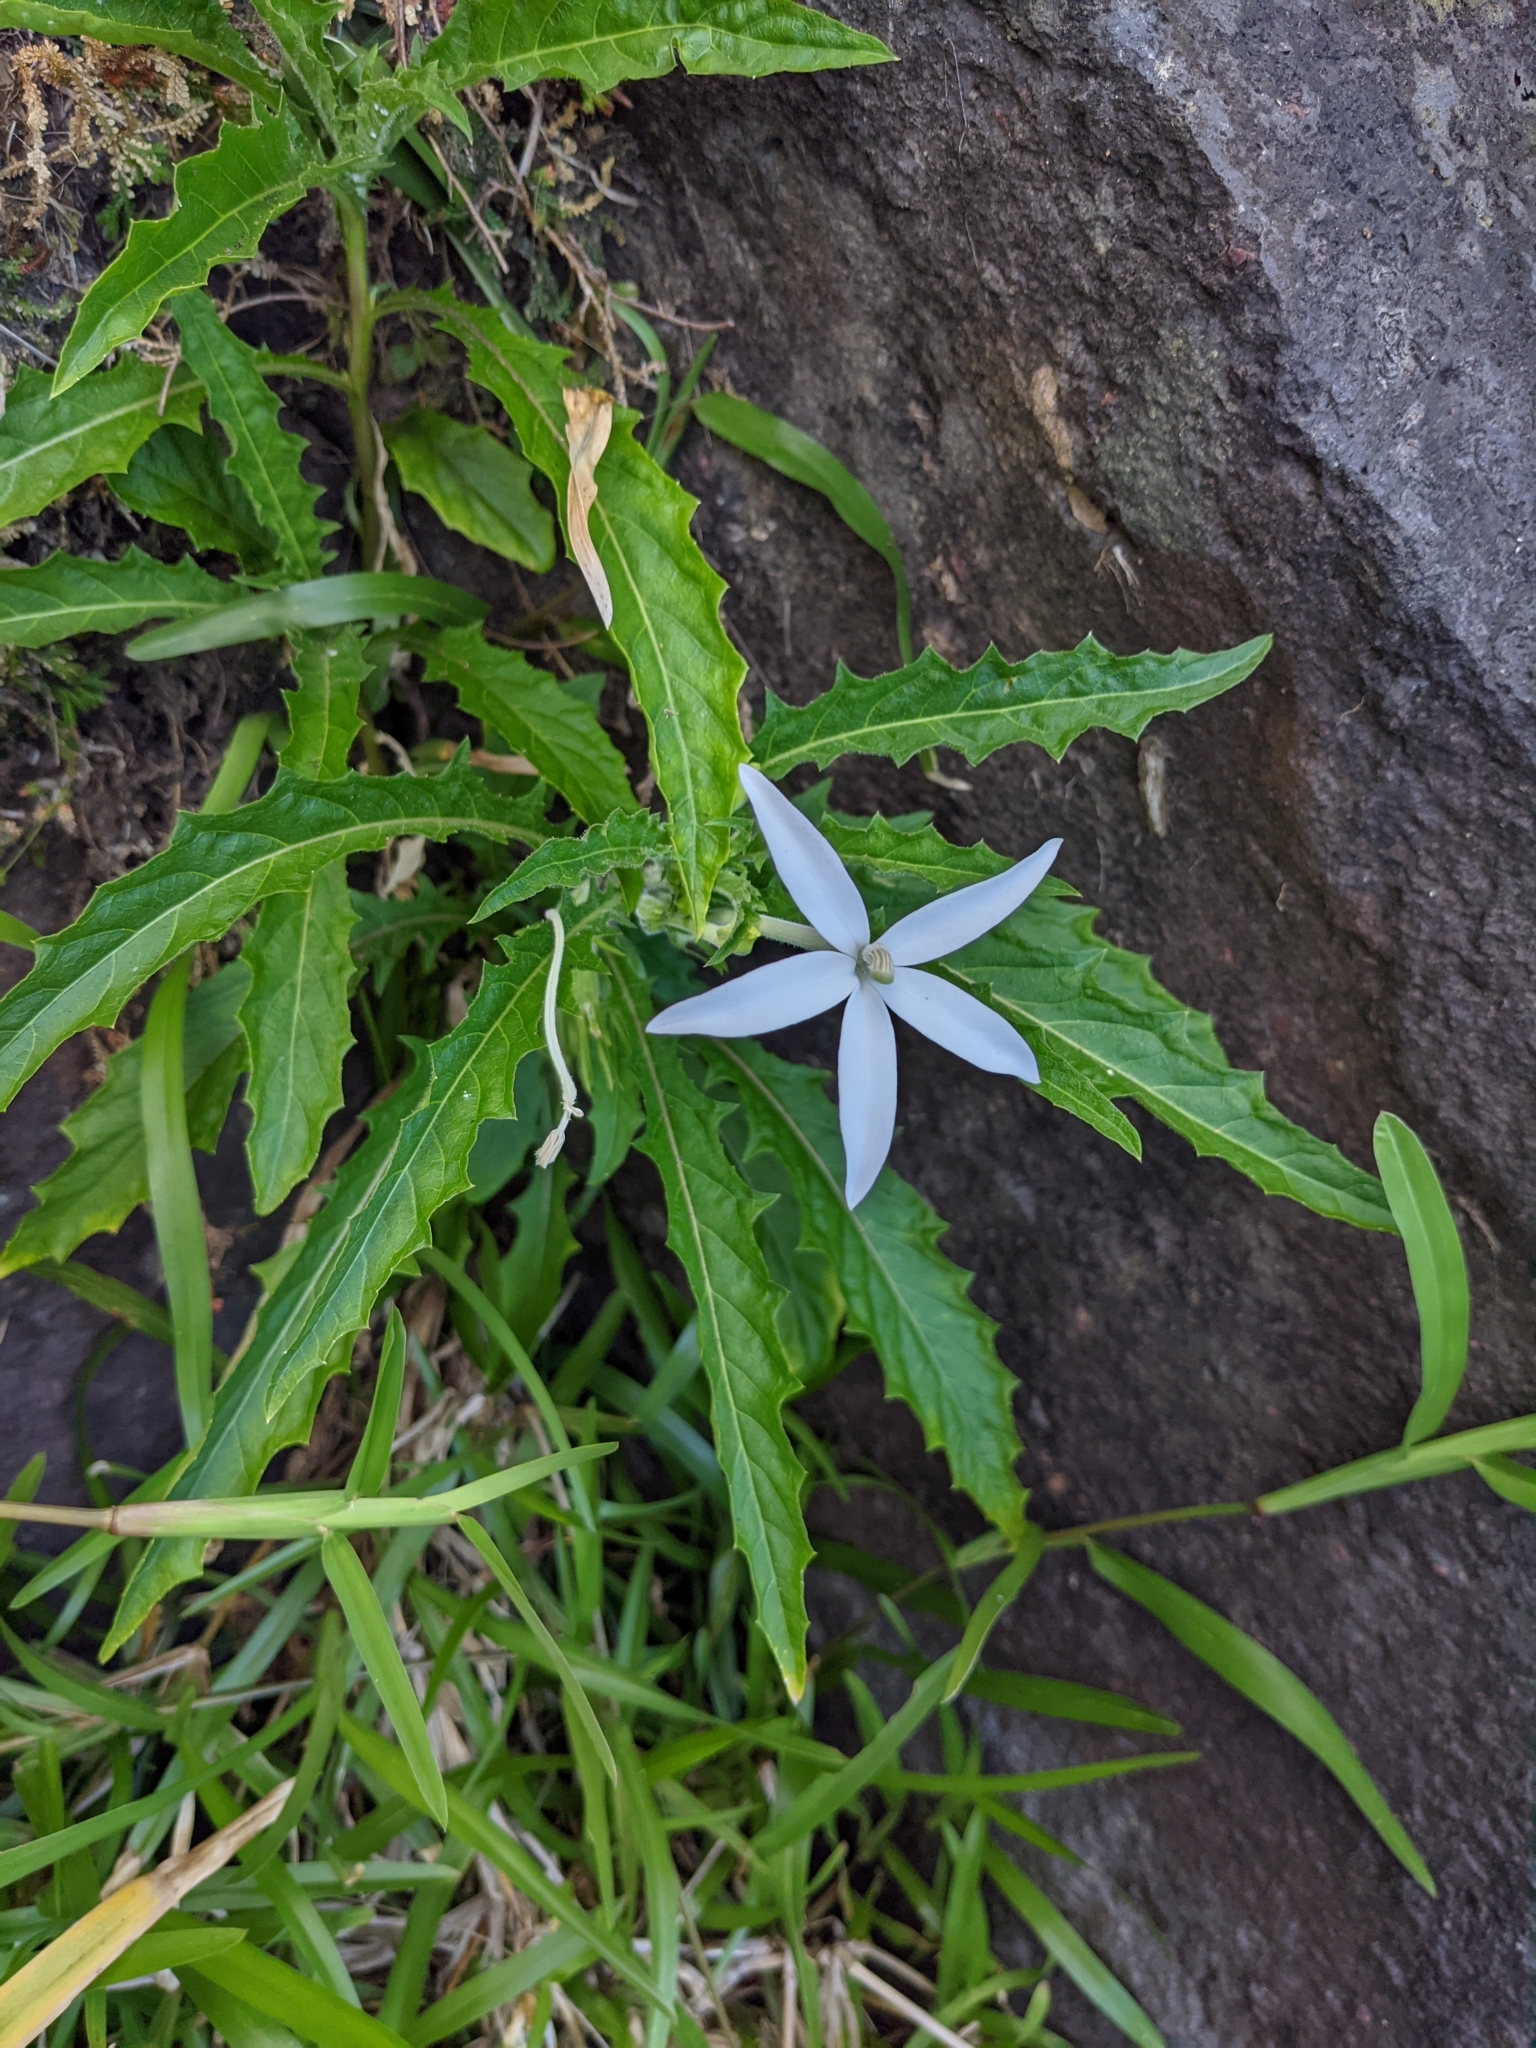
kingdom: Plantae
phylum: Tracheophyta
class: Magnoliopsida
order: Asterales
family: Campanulaceae
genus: Hippobroma
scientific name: Hippobroma longiflora
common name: Madamfate
